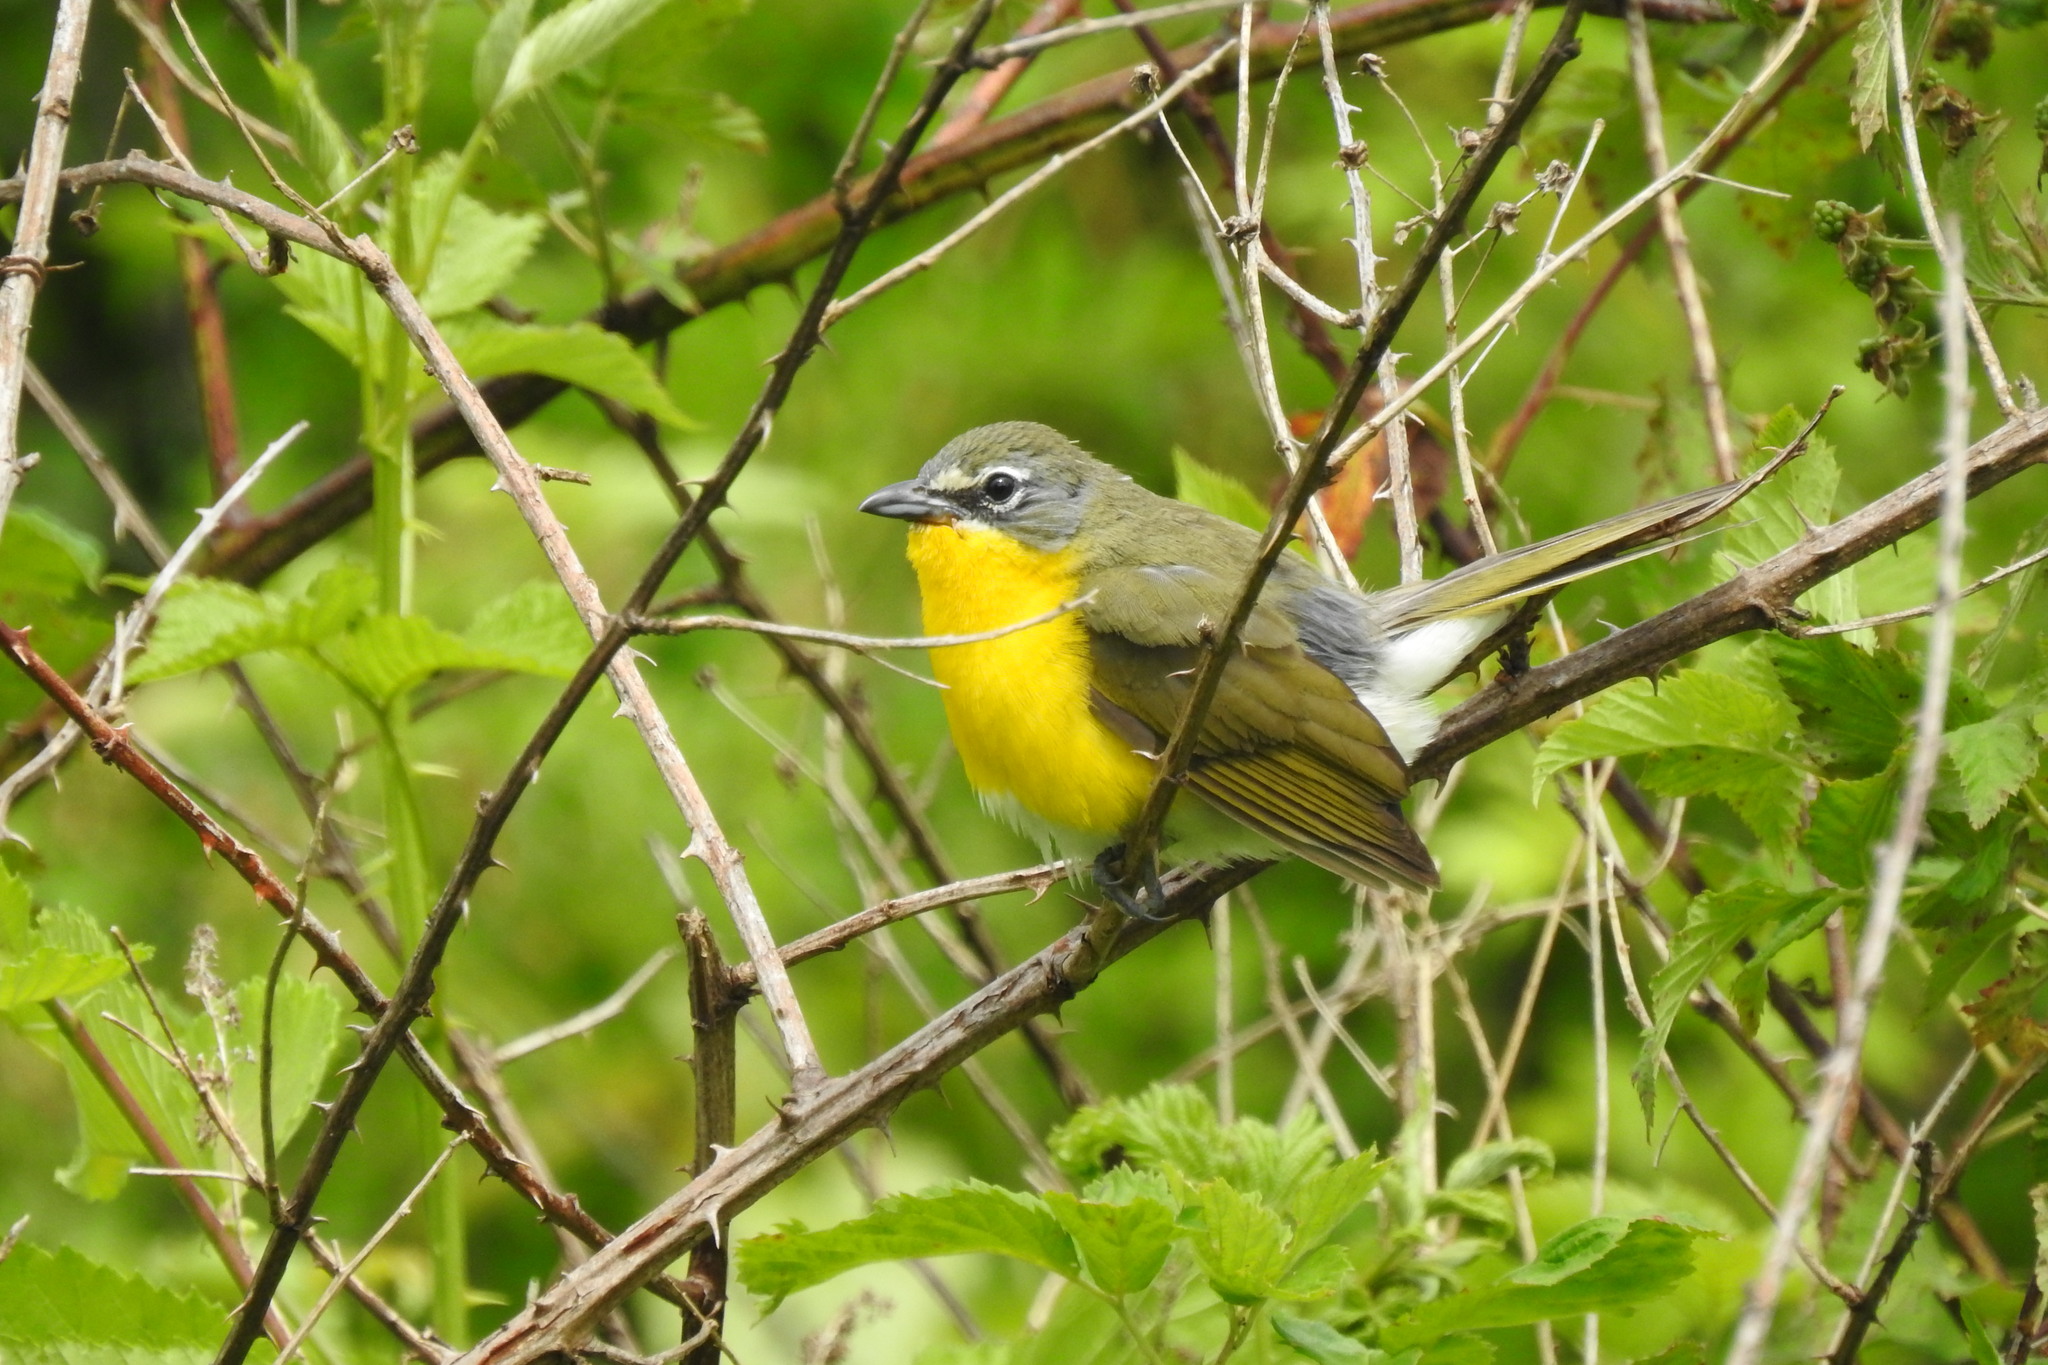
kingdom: Animalia
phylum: Chordata
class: Aves
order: Passeriformes
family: Parulidae
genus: Icteria
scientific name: Icteria virens
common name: Yellow-breasted chat
